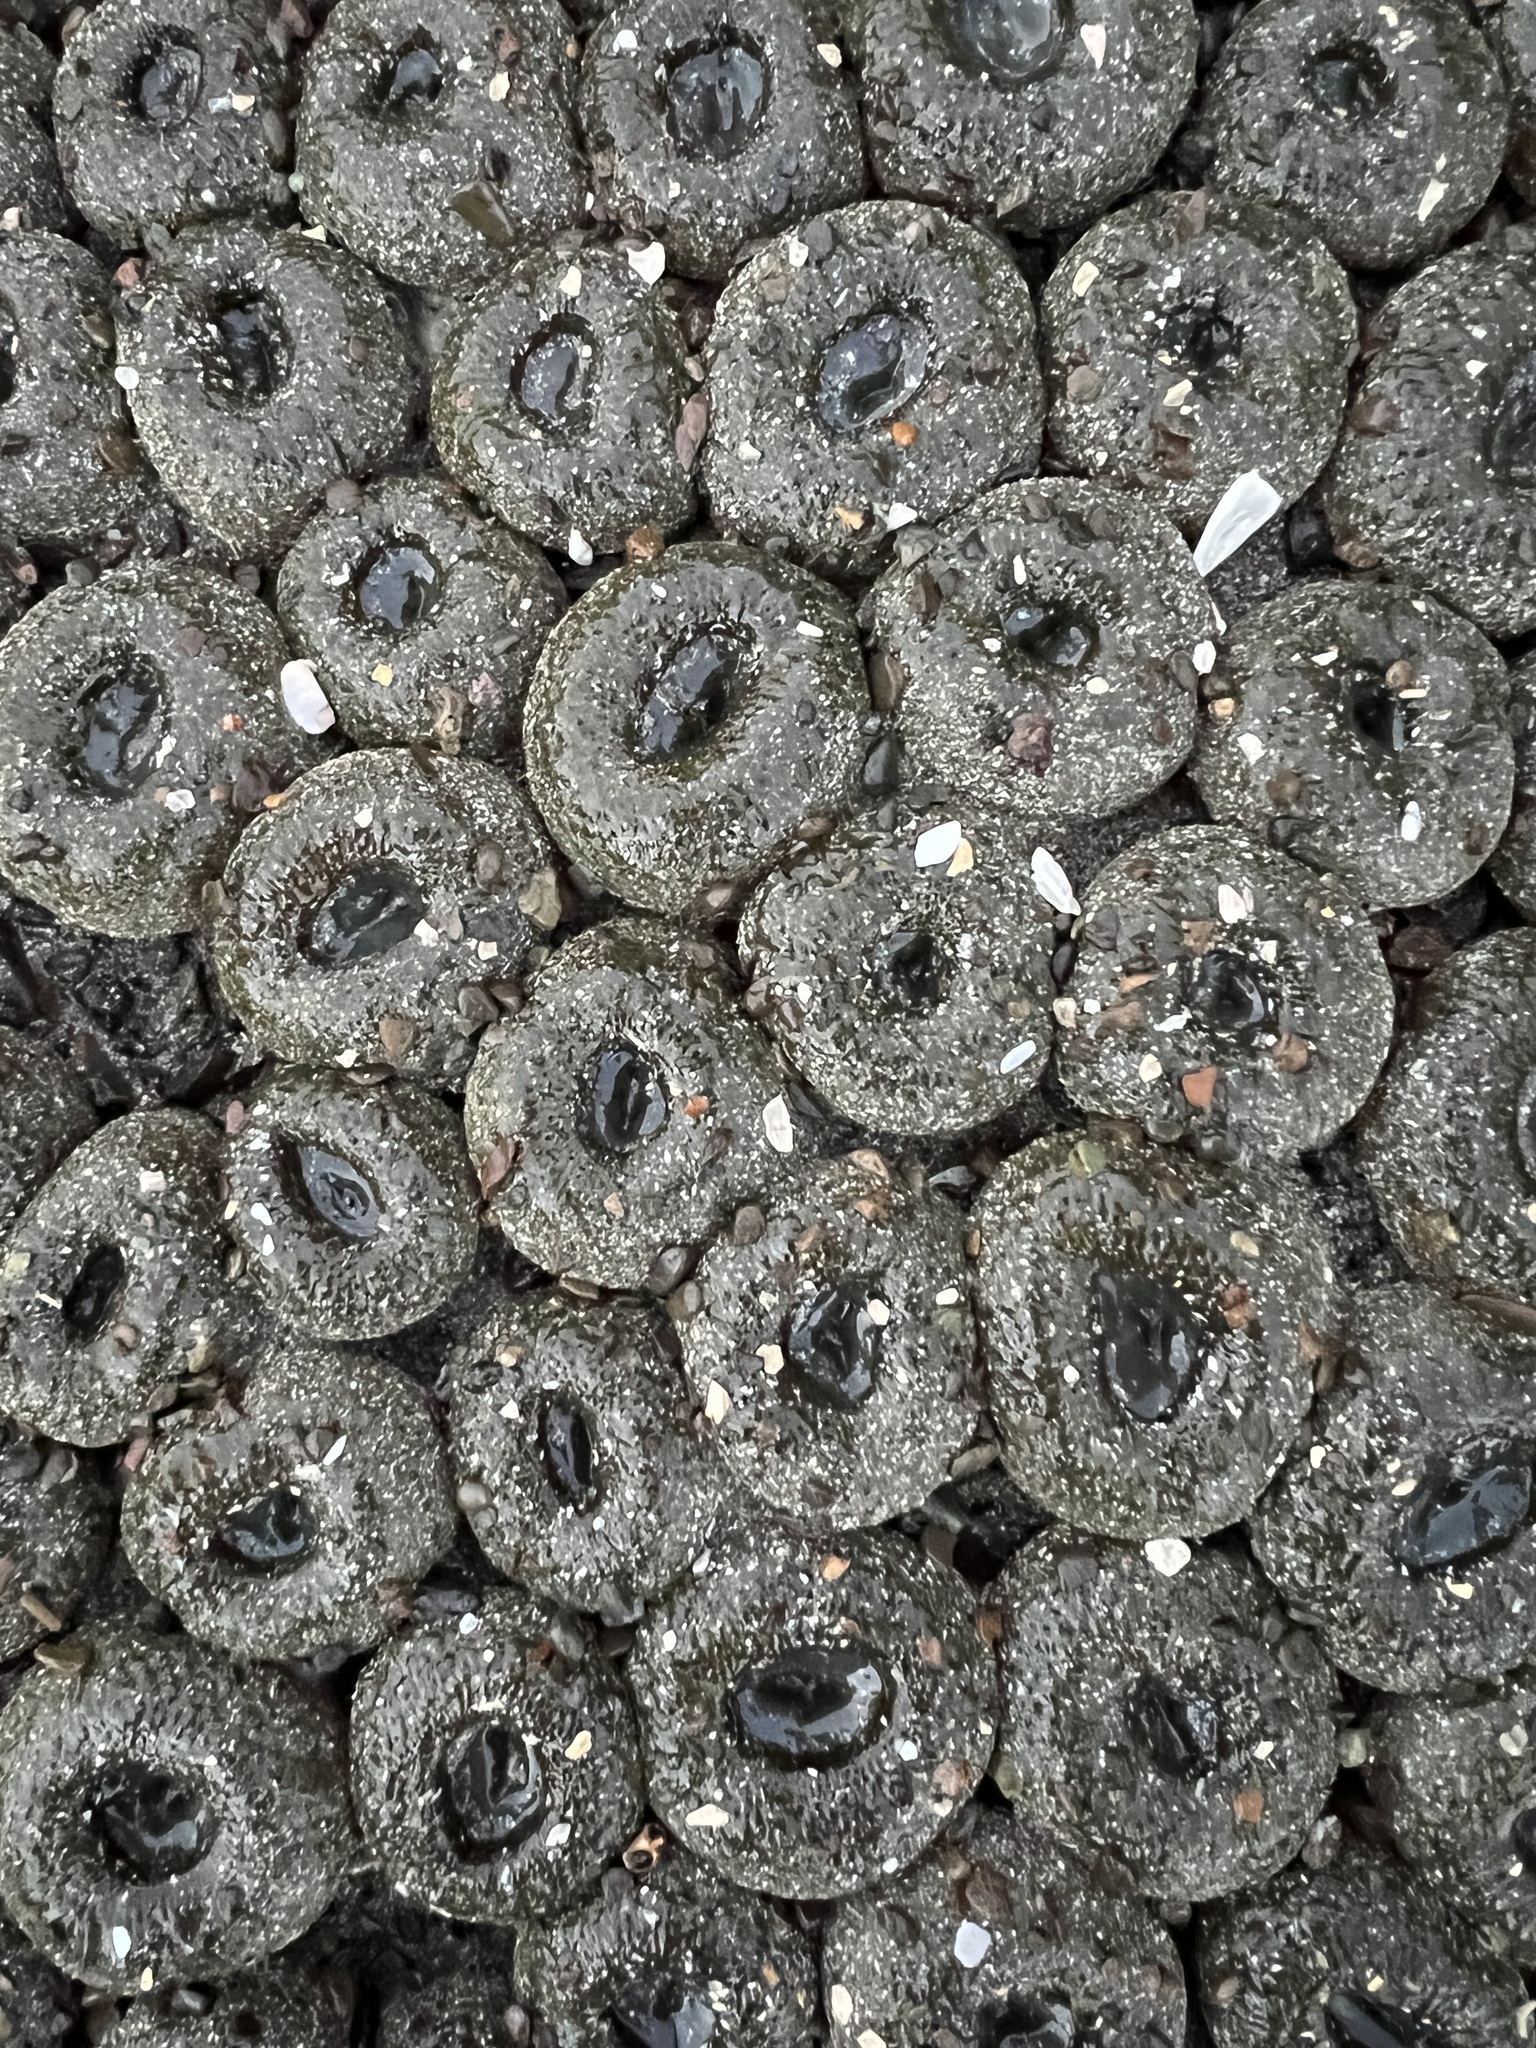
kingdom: Animalia
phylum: Cnidaria
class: Anthozoa
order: Actiniaria
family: Actiniidae
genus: Anthopleura
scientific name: Anthopleura elegantissima
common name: Clonal anemone
